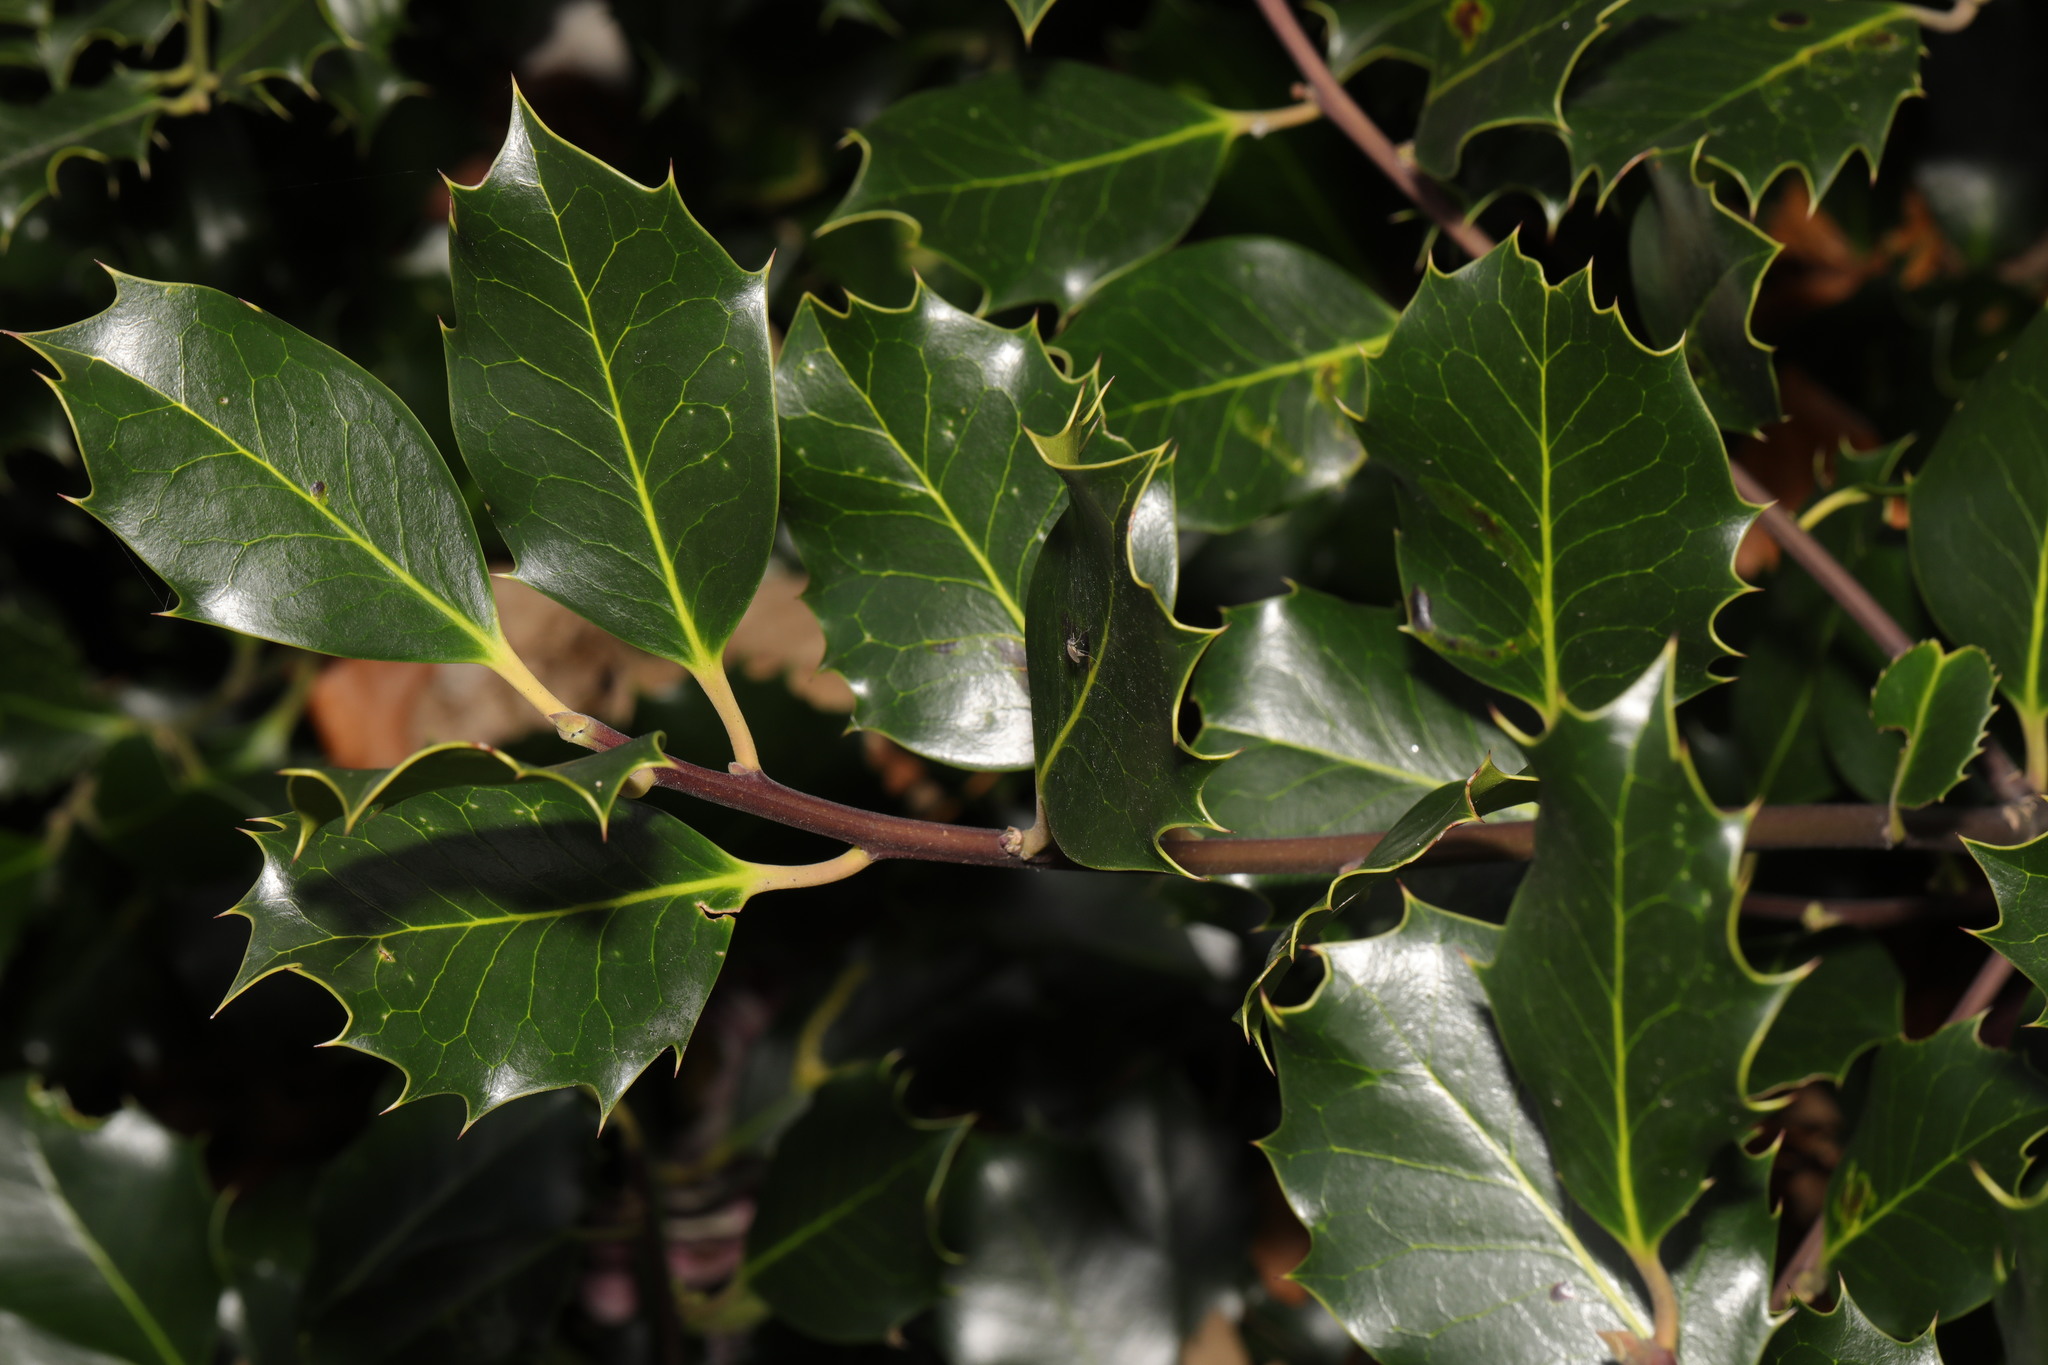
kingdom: Plantae
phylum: Tracheophyta
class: Magnoliopsida
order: Aquifoliales
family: Aquifoliaceae
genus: Ilex
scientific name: Ilex aquifolium
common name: English holly
